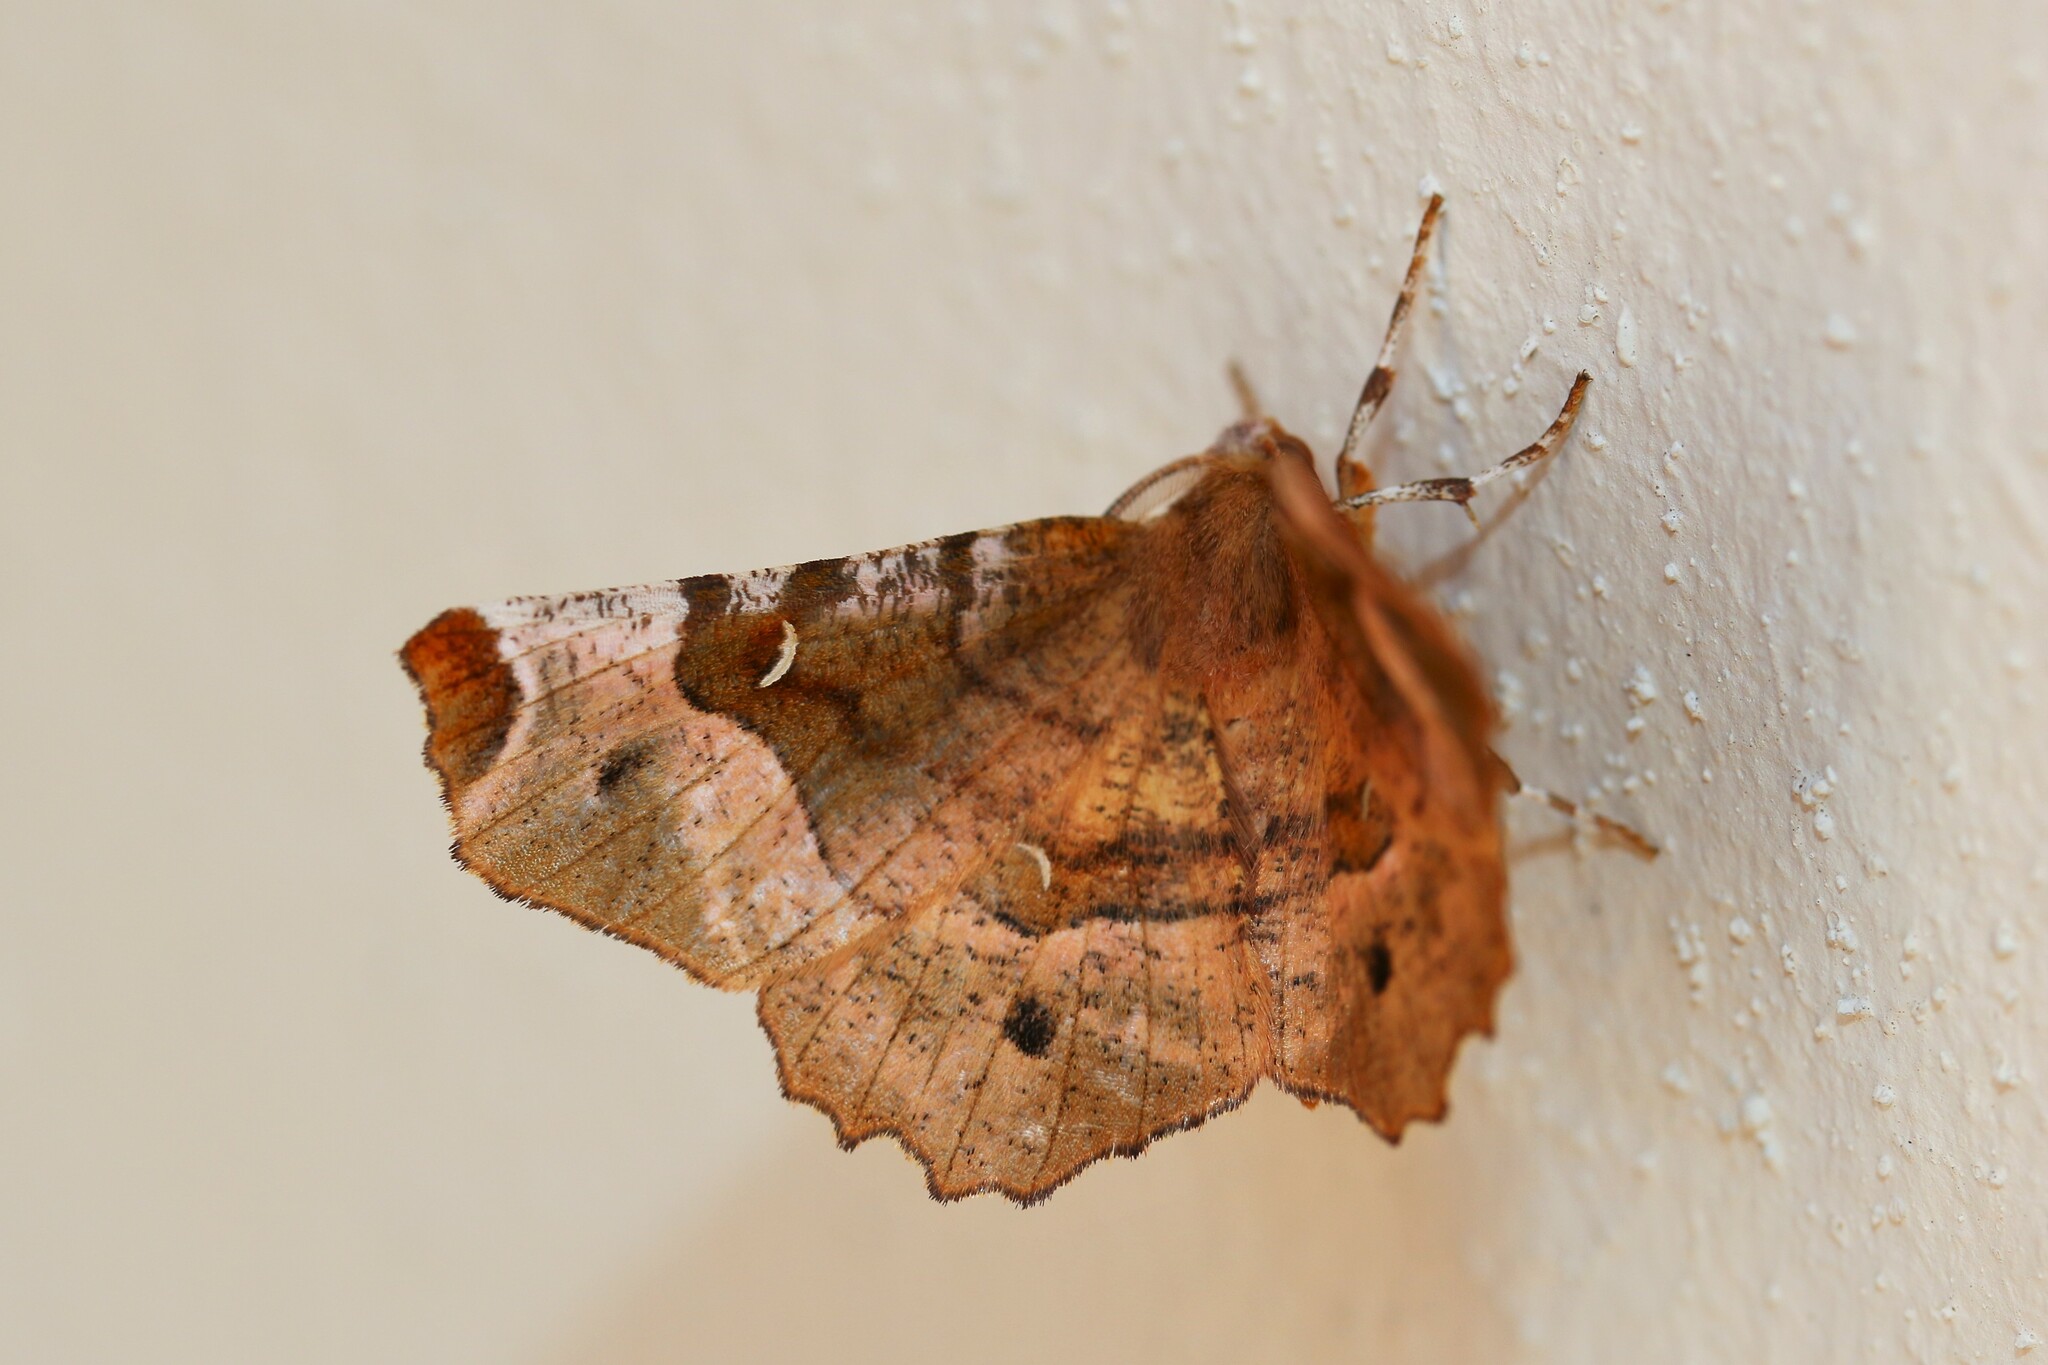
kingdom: Animalia
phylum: Arthropoda
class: Insecta
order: Lepidoptera
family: Geometridae
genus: Selenia
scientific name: Selenia tetralunaria
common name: Purple thorn
